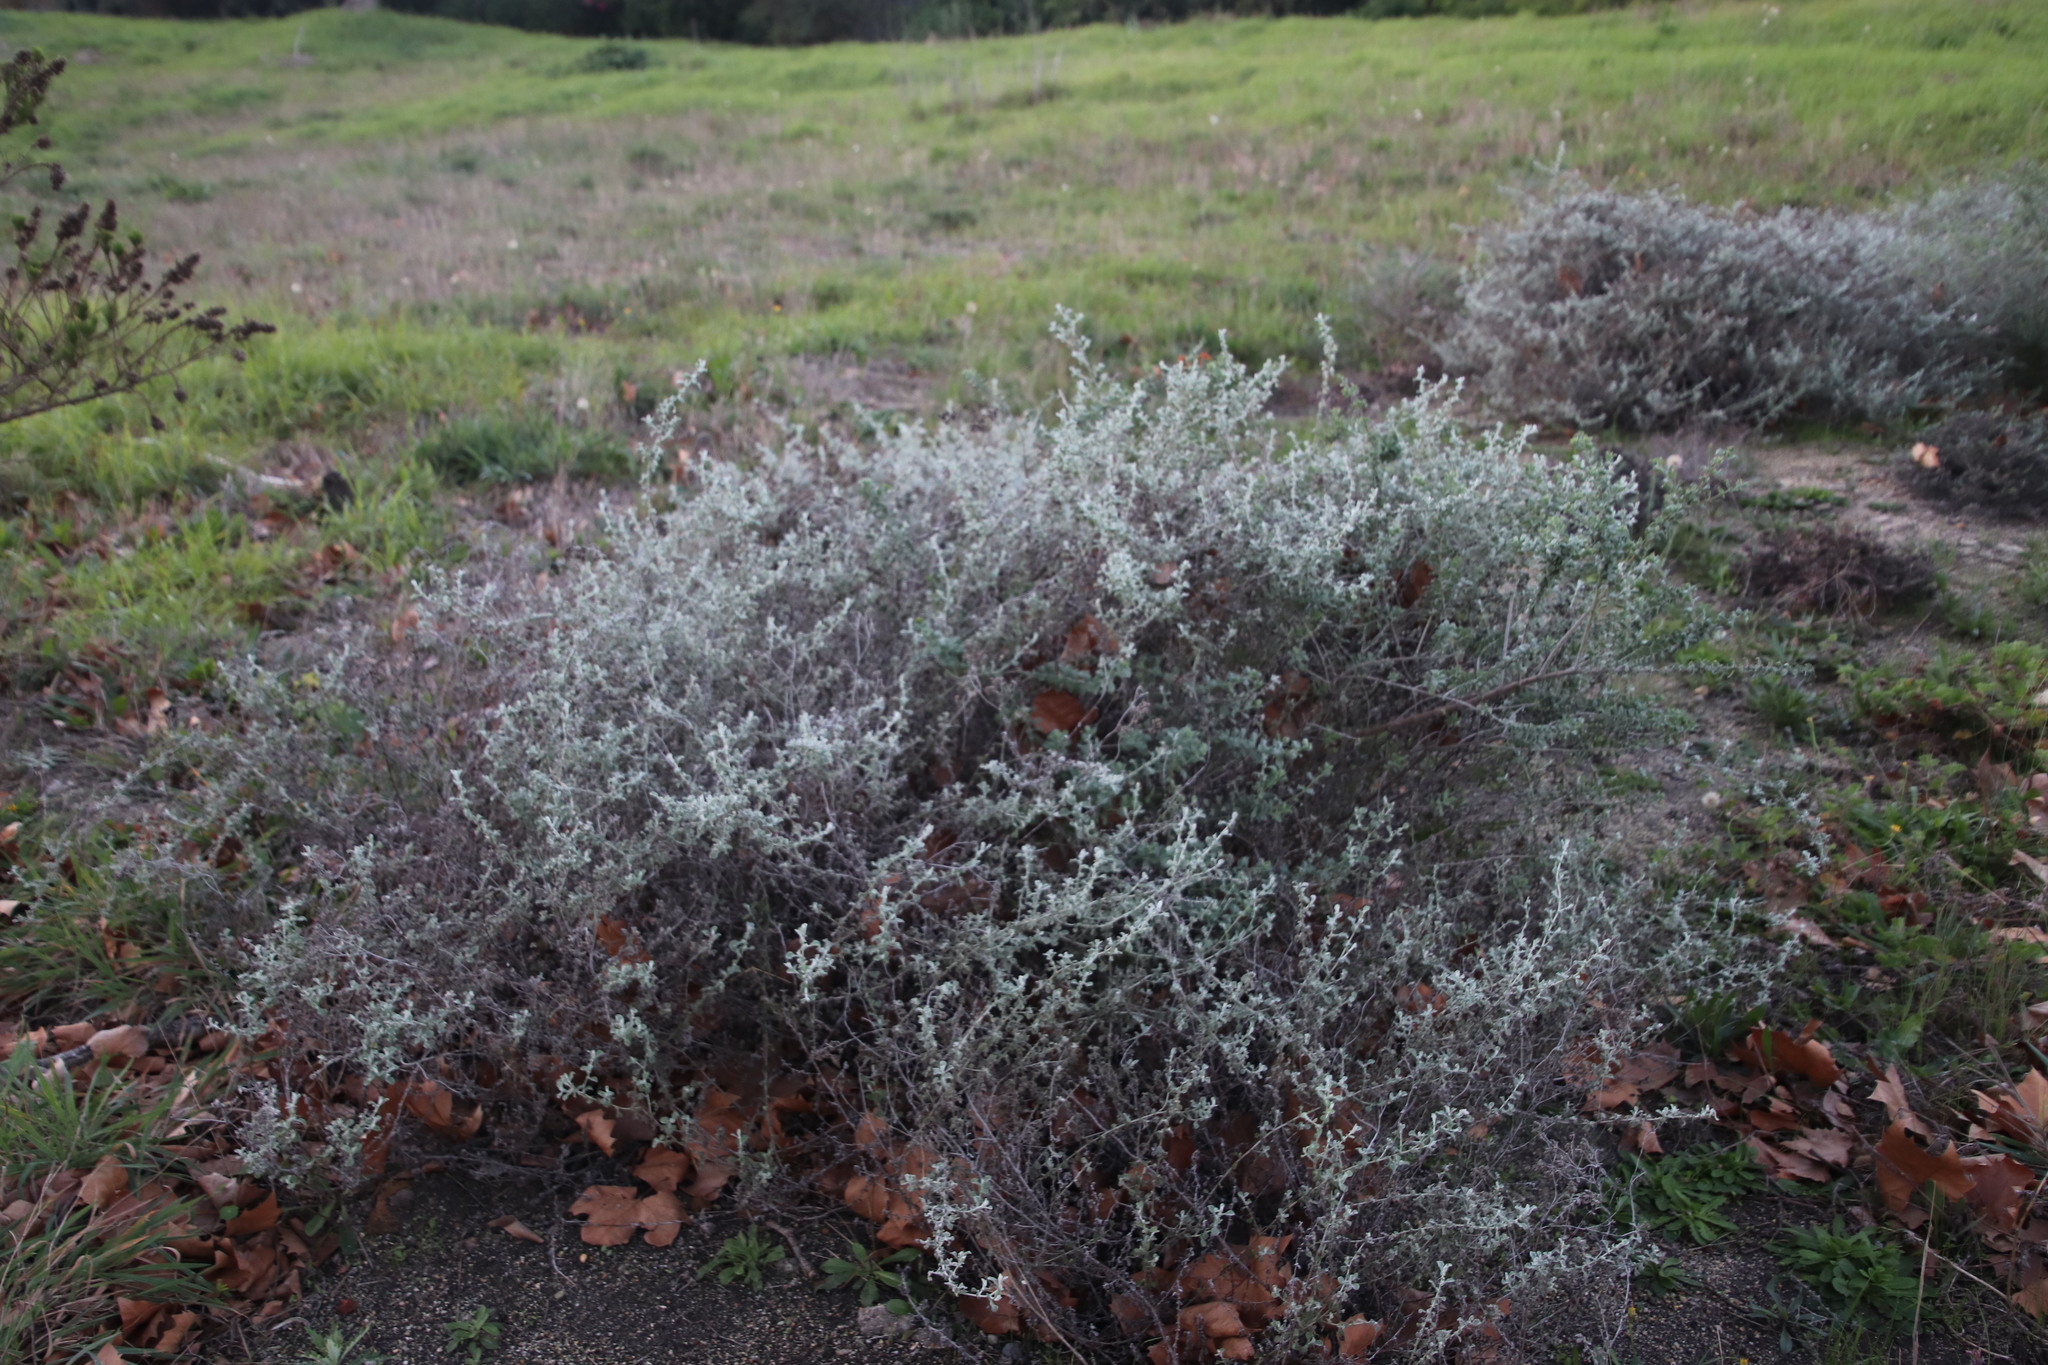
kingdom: Plantae
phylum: Tracheophyta
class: Magnoliopsida
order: Asterales
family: Asteraceae
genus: Helichrysum
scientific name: Helichrysum patulum
